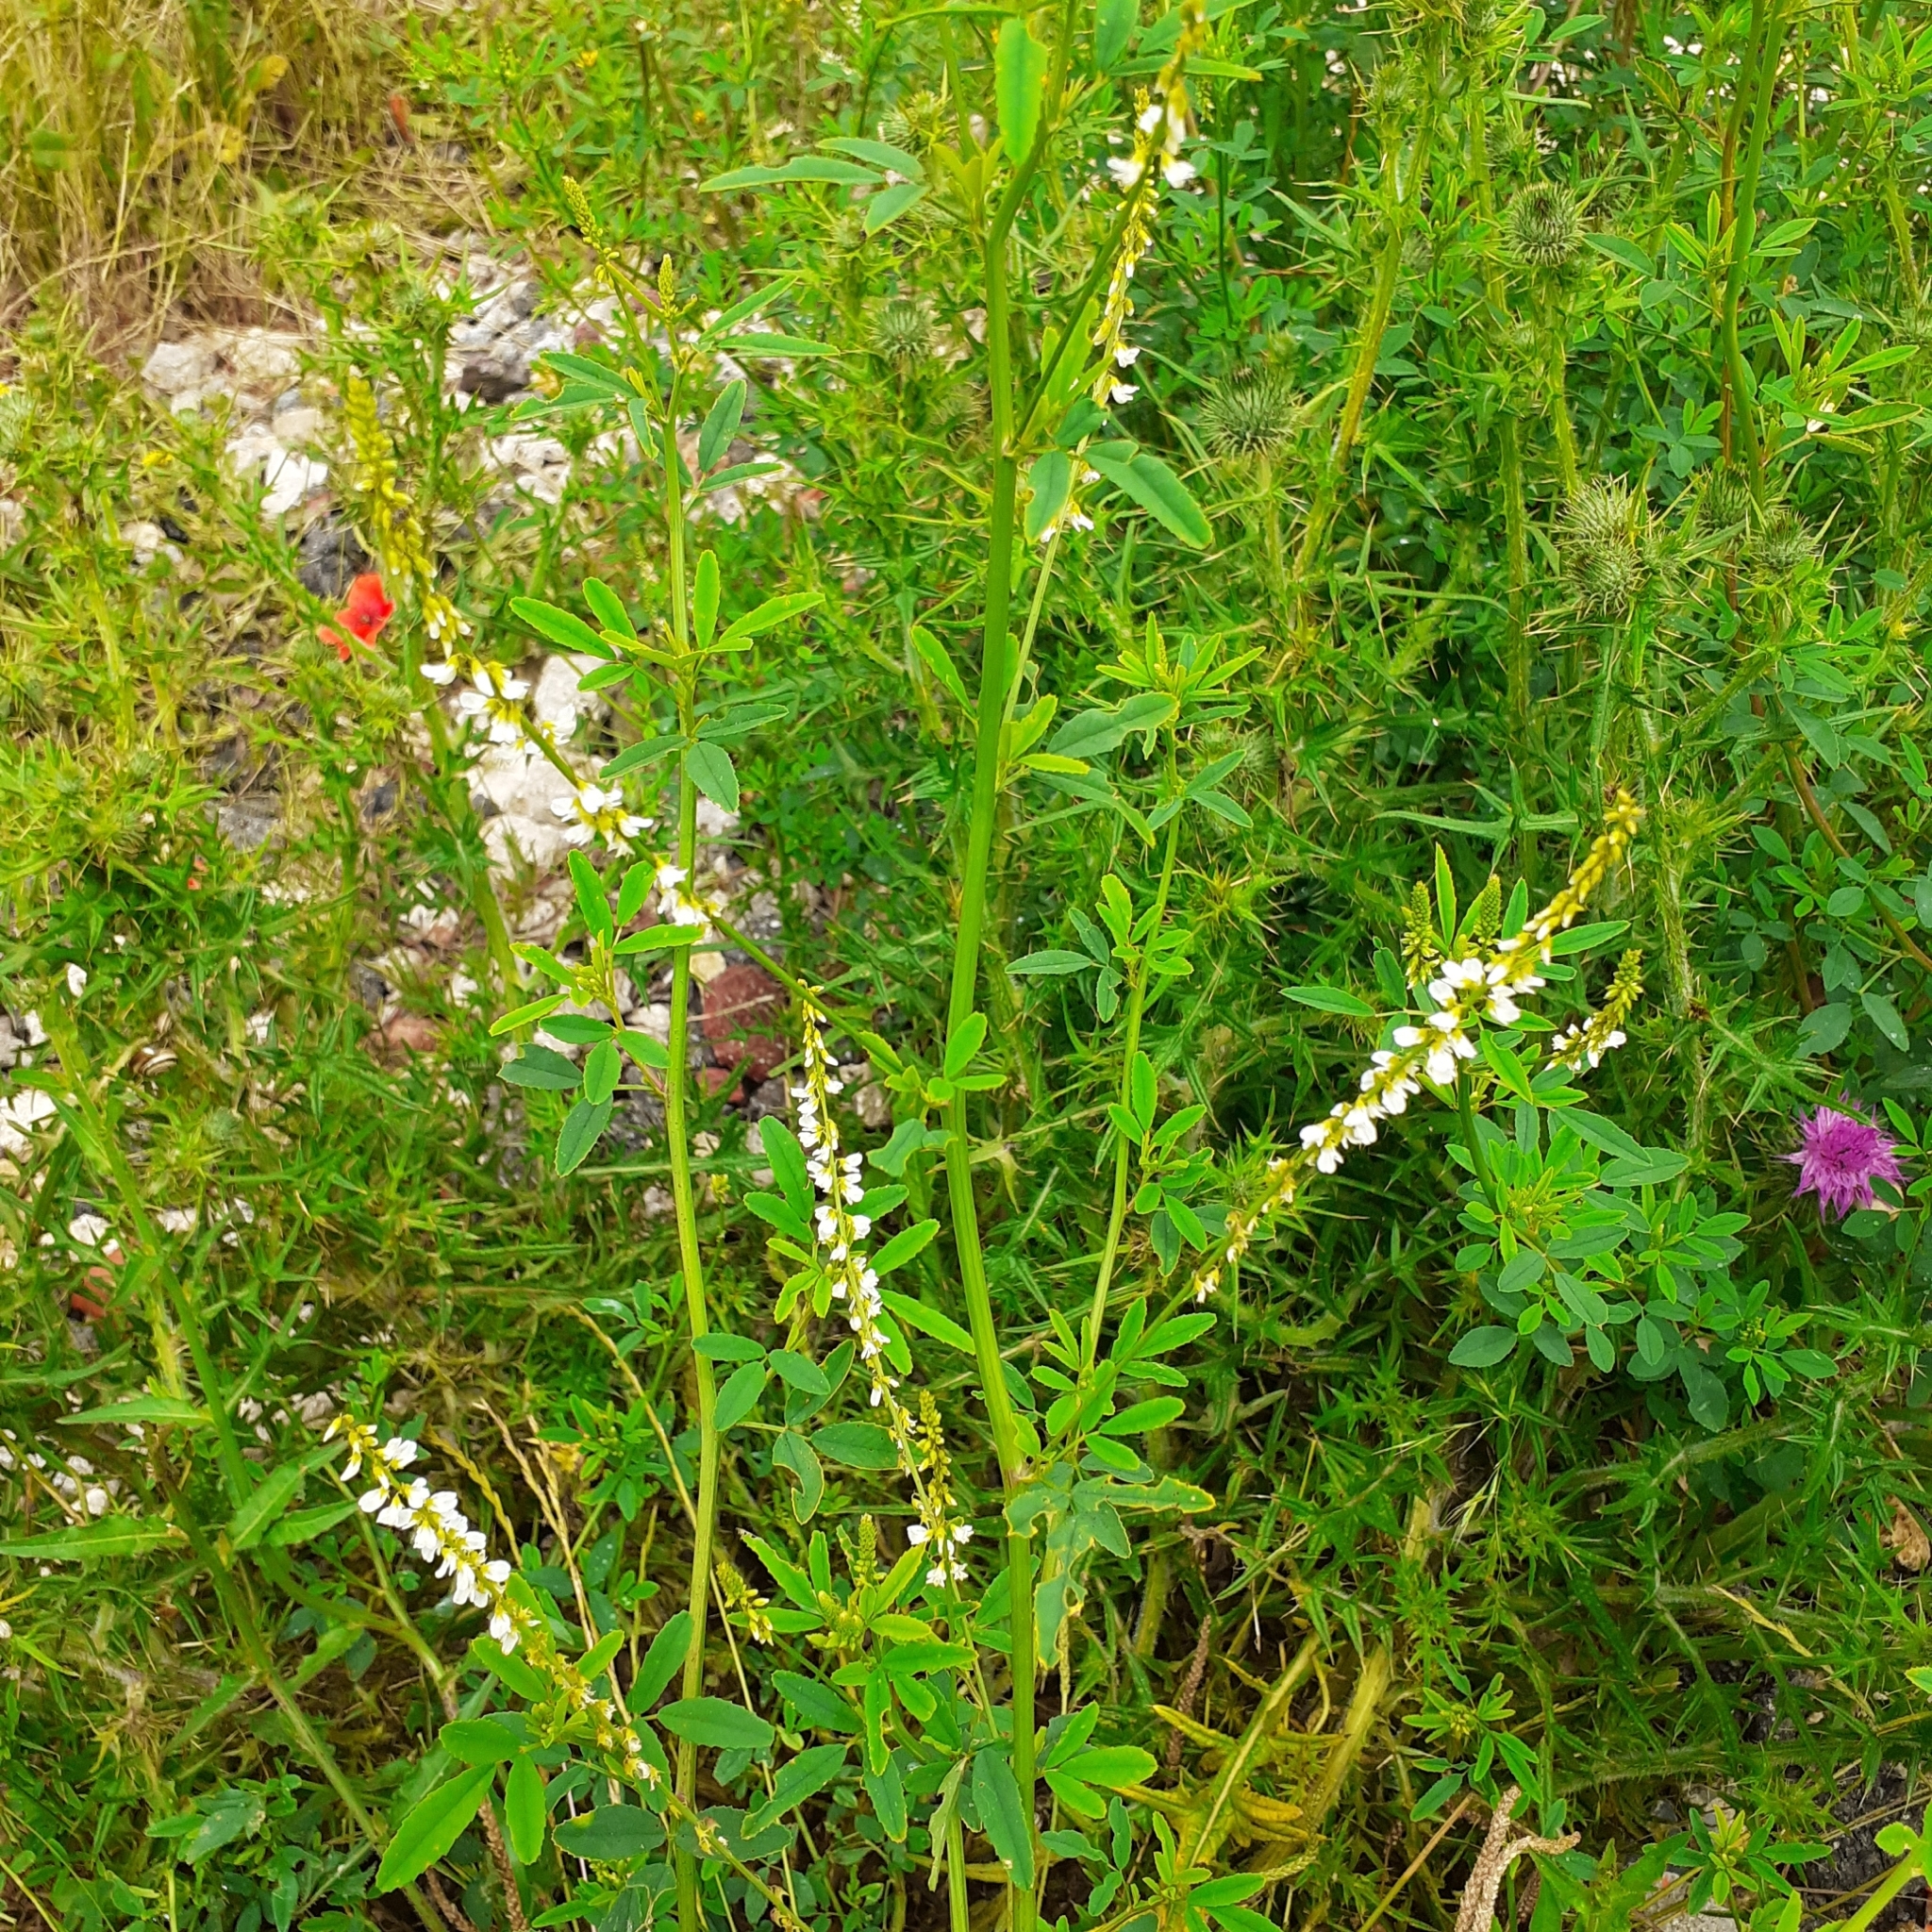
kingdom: Plantae
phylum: Tracheophyta
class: Magnoliopsida
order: Fabales
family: Fabaceae
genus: Melilotus
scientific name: Melilotus albus
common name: White melilot
